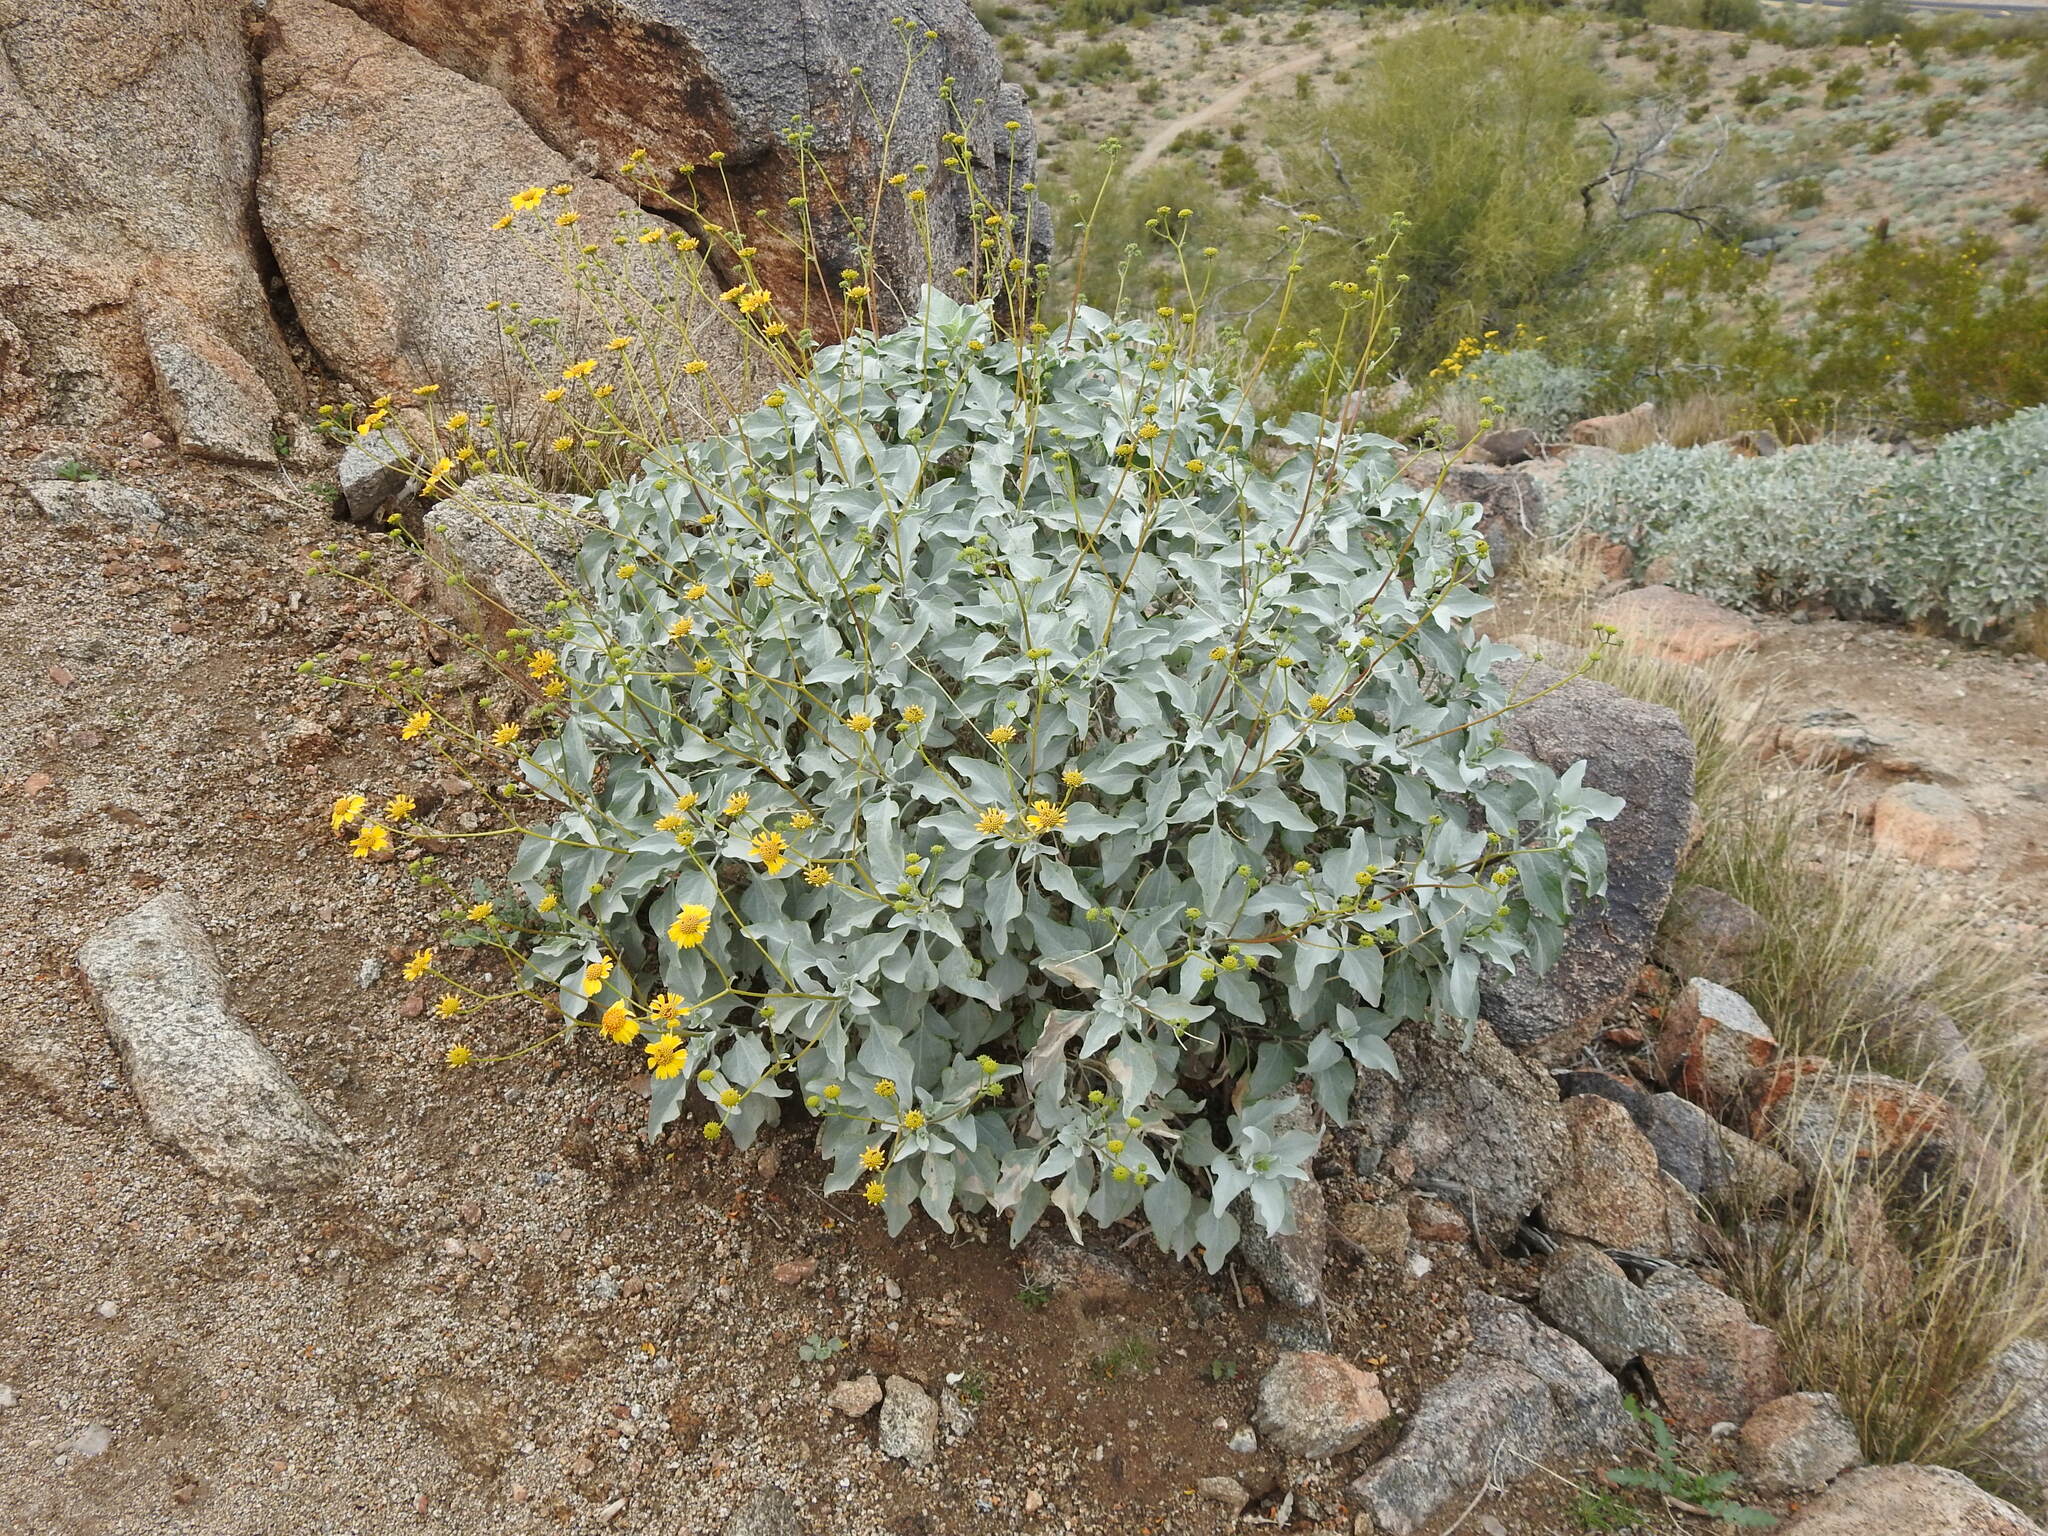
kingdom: Plantae
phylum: Tracheophyta
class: Magnoliopsida
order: Asterales
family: Asteraceae
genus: Encelia
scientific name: Encelia farinosa
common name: Brittlebush
